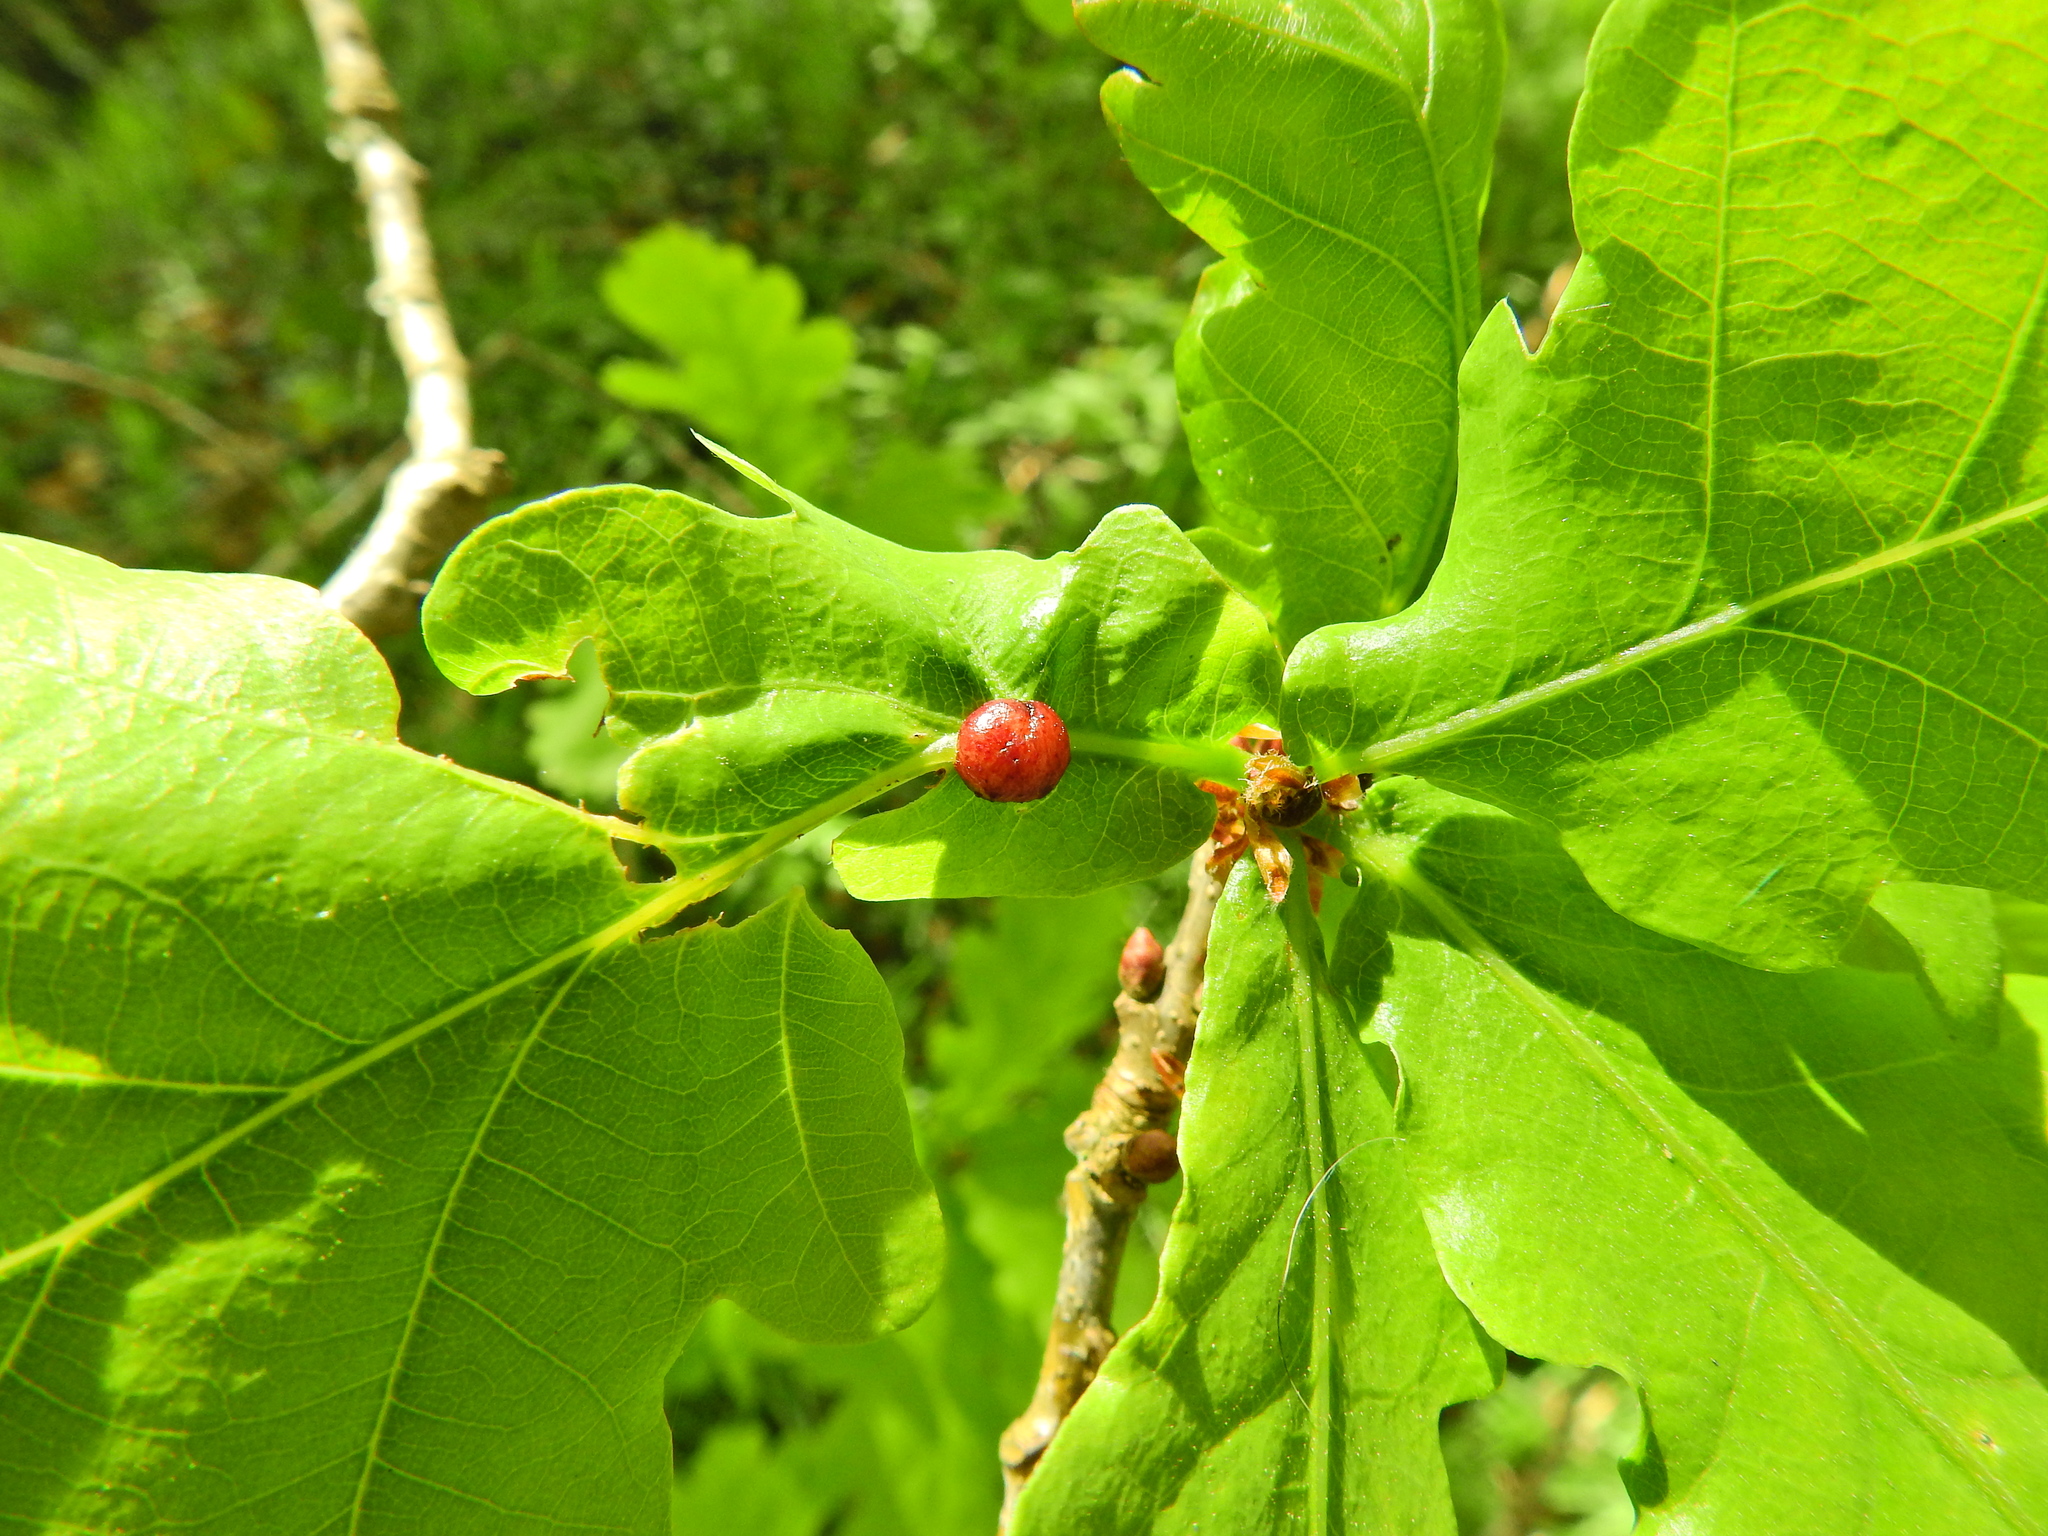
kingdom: Animalia
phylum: Arthropoda
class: Insecta
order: Hymenoptera
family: Cynipidae
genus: Neuroterus
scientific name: Neuroterus quercusbaccarum
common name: Common spangle gall
